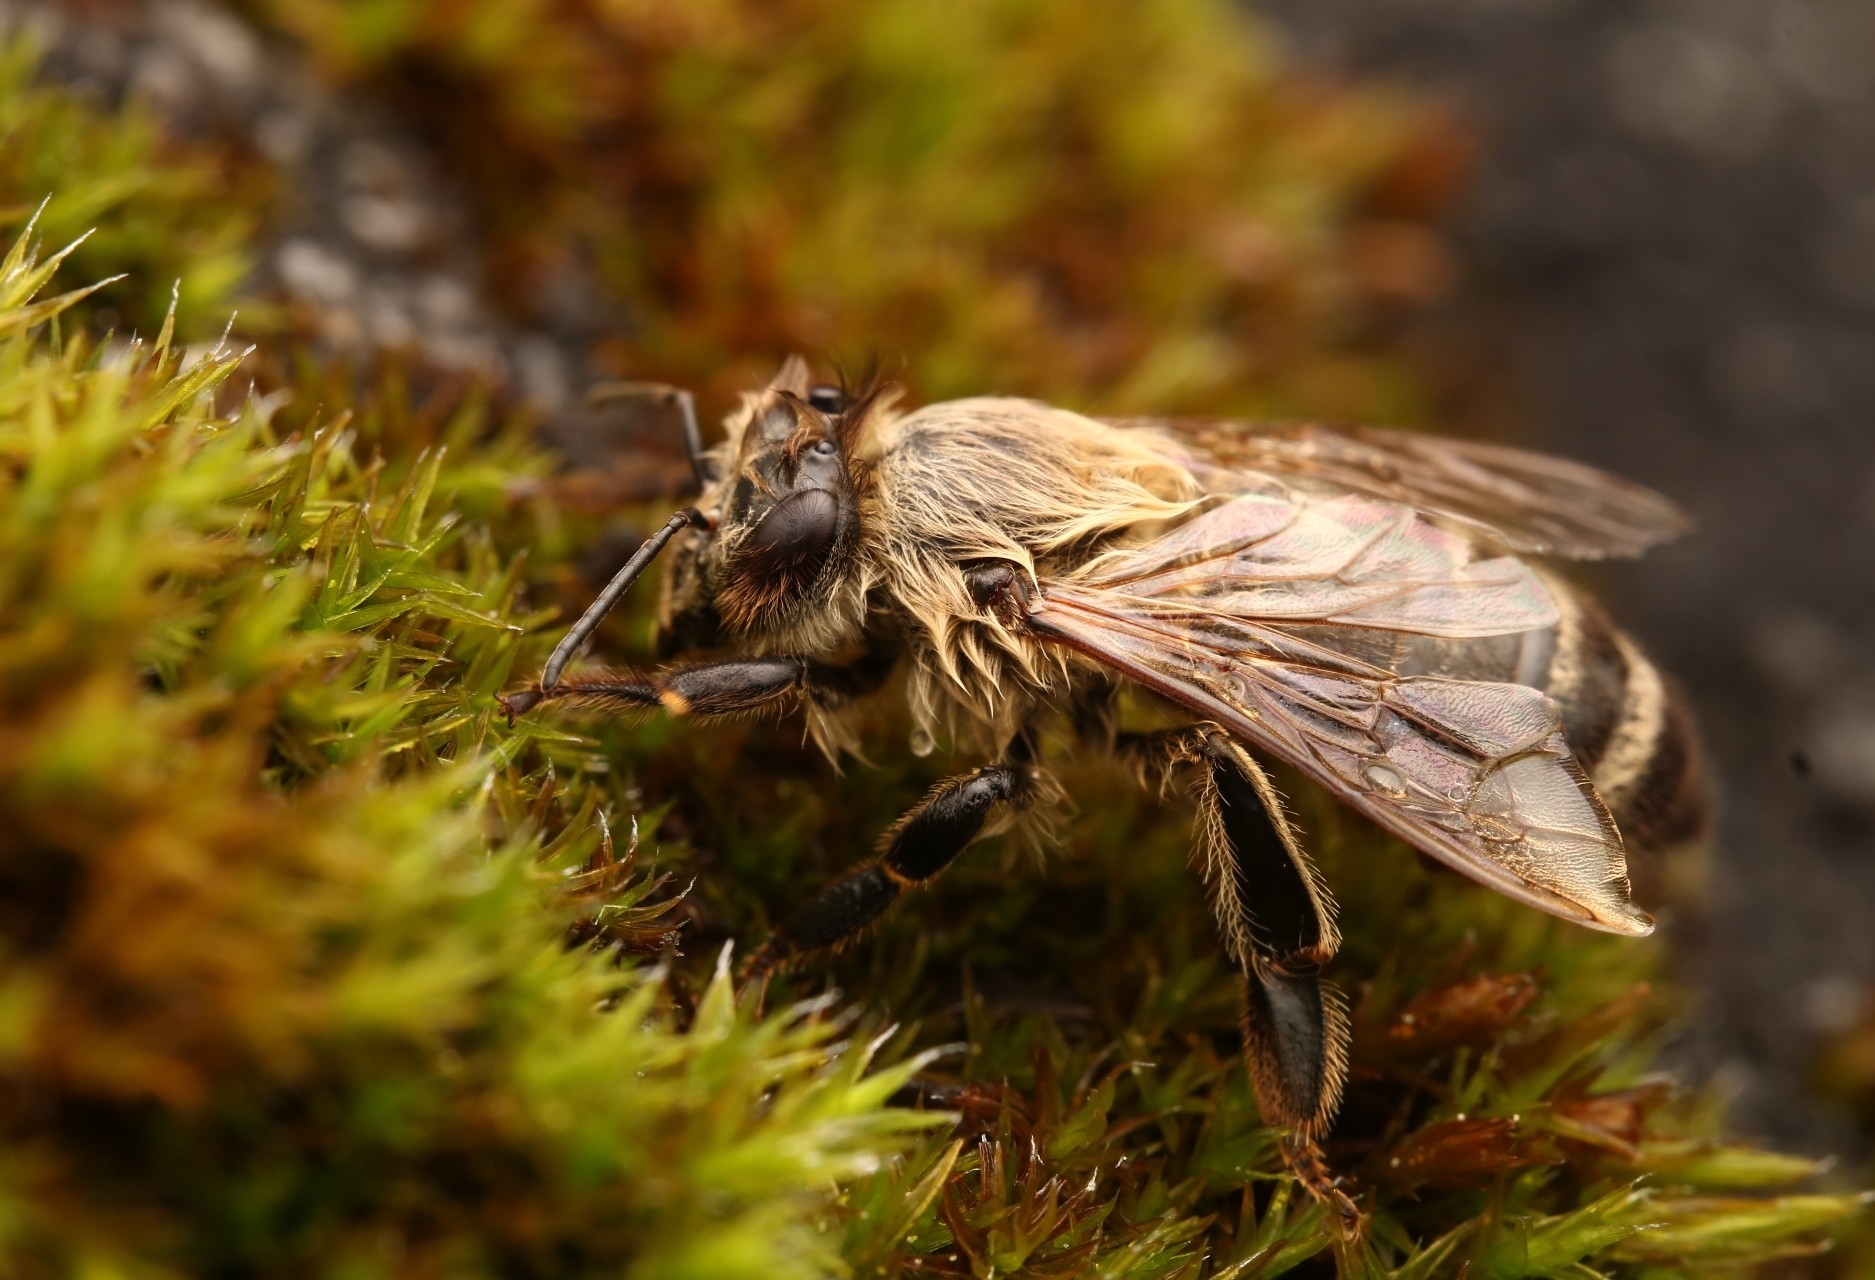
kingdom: Animalia
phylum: Arthropoda
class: Insecta
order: Hymenoptera
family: Apidae
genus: Apis
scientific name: Apis mellifera
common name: Honey bee
